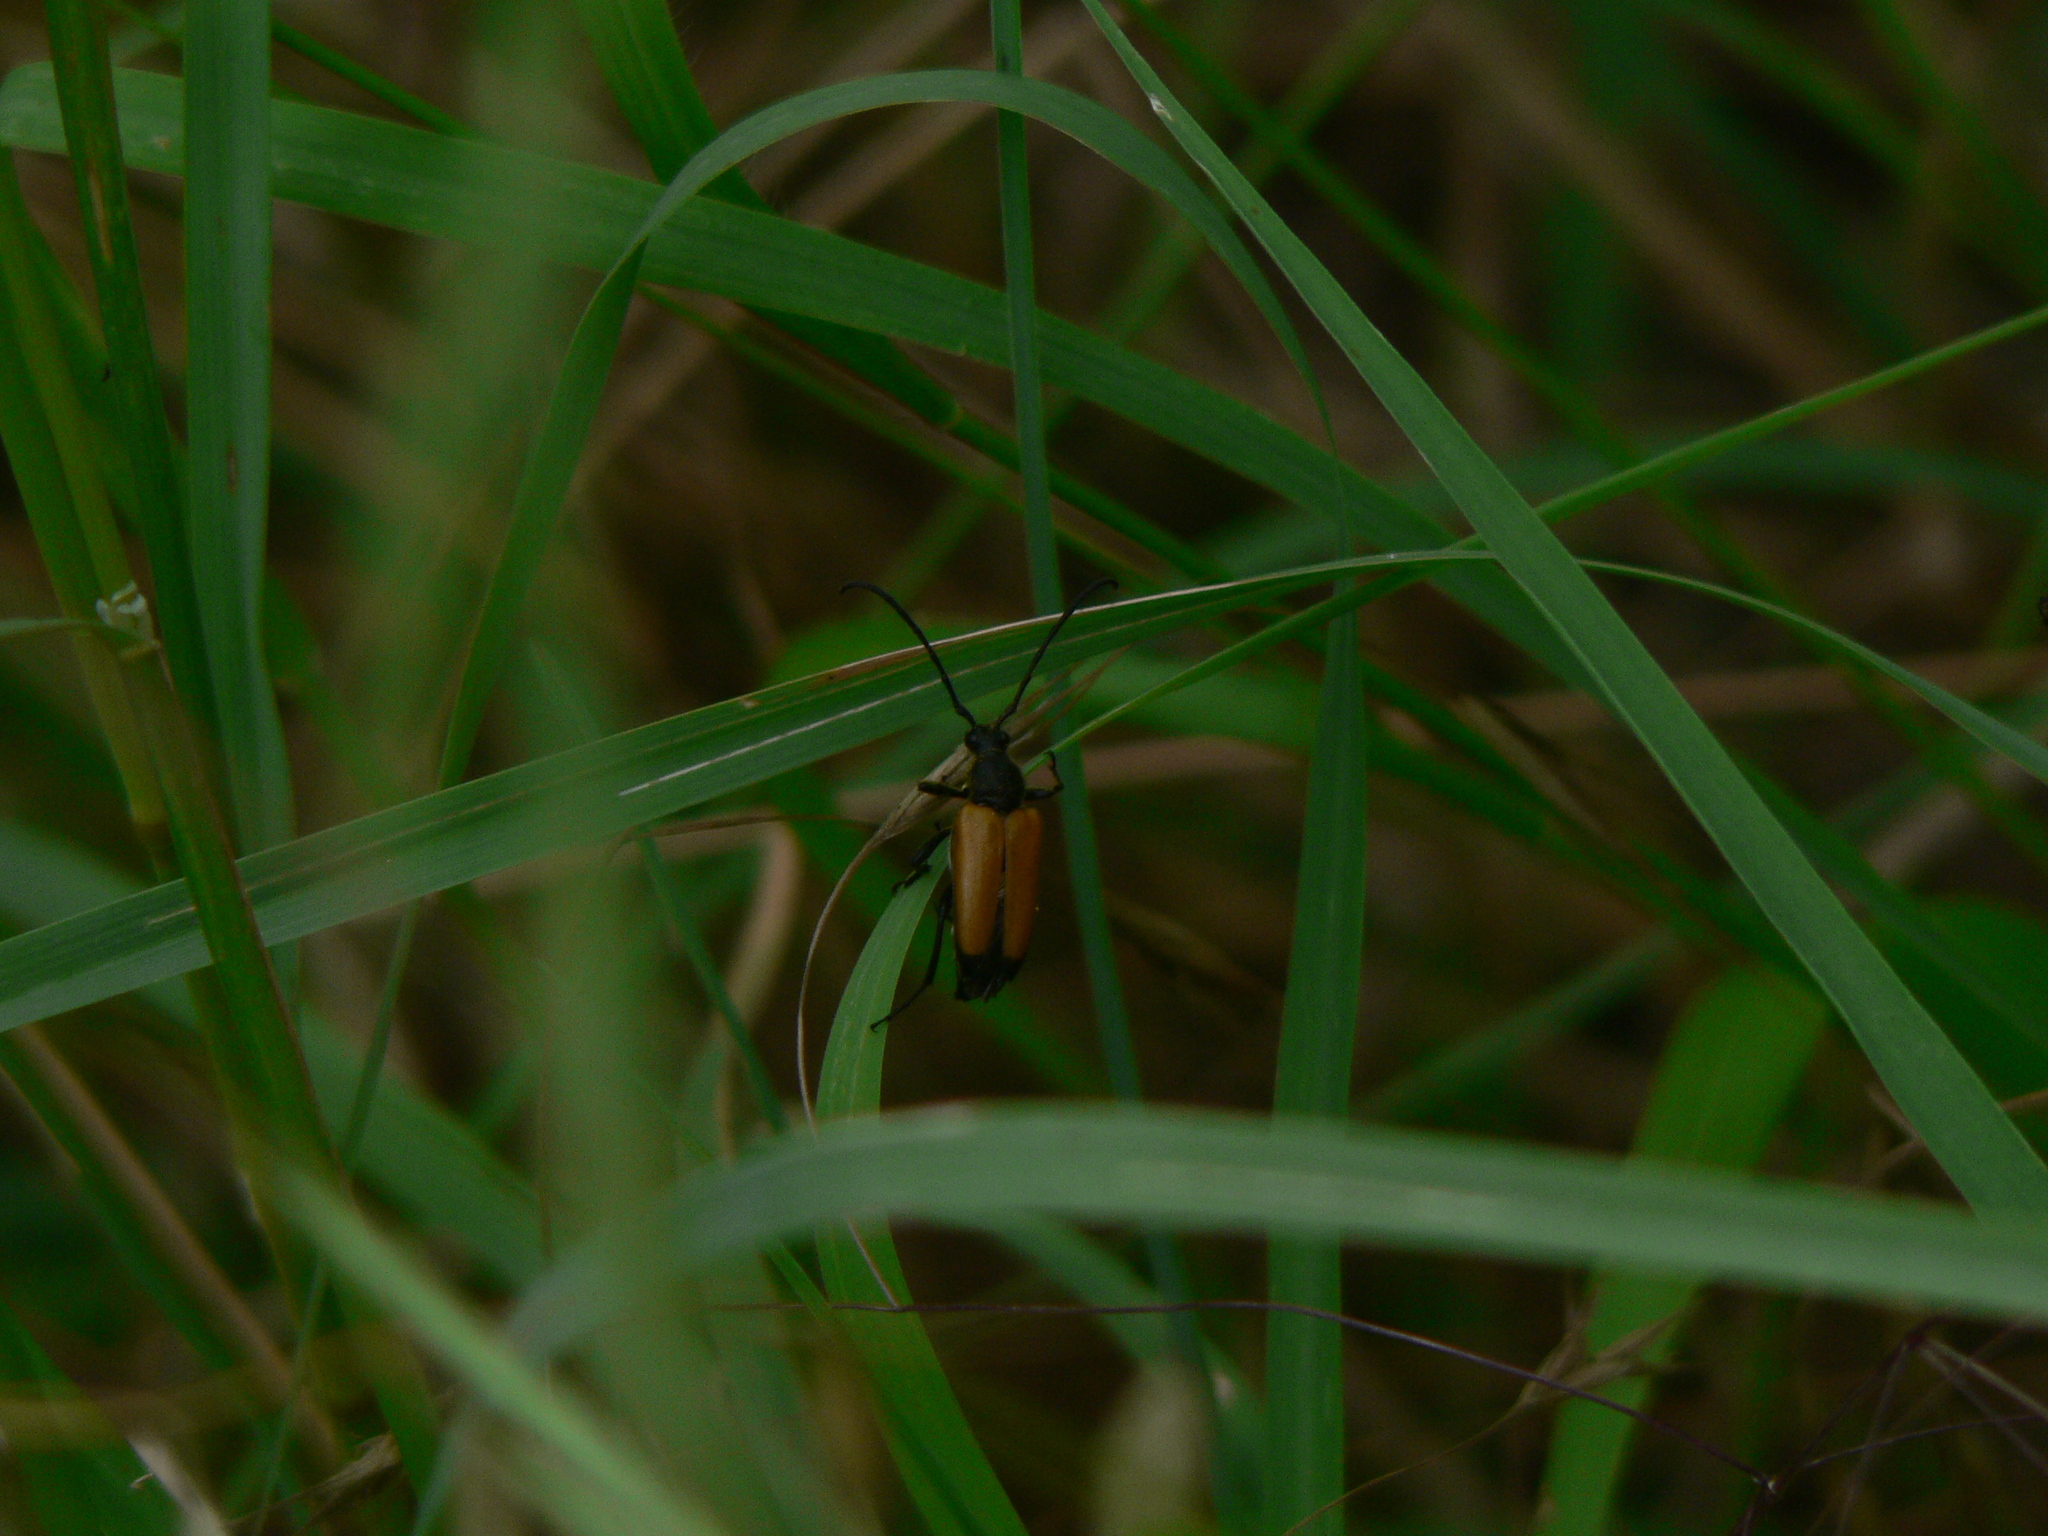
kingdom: Animalia
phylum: Arthropoda
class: Insecta
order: Coleoptera
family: Cerambycidae
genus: Paracorymbia
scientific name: Paracorymbia fulva
